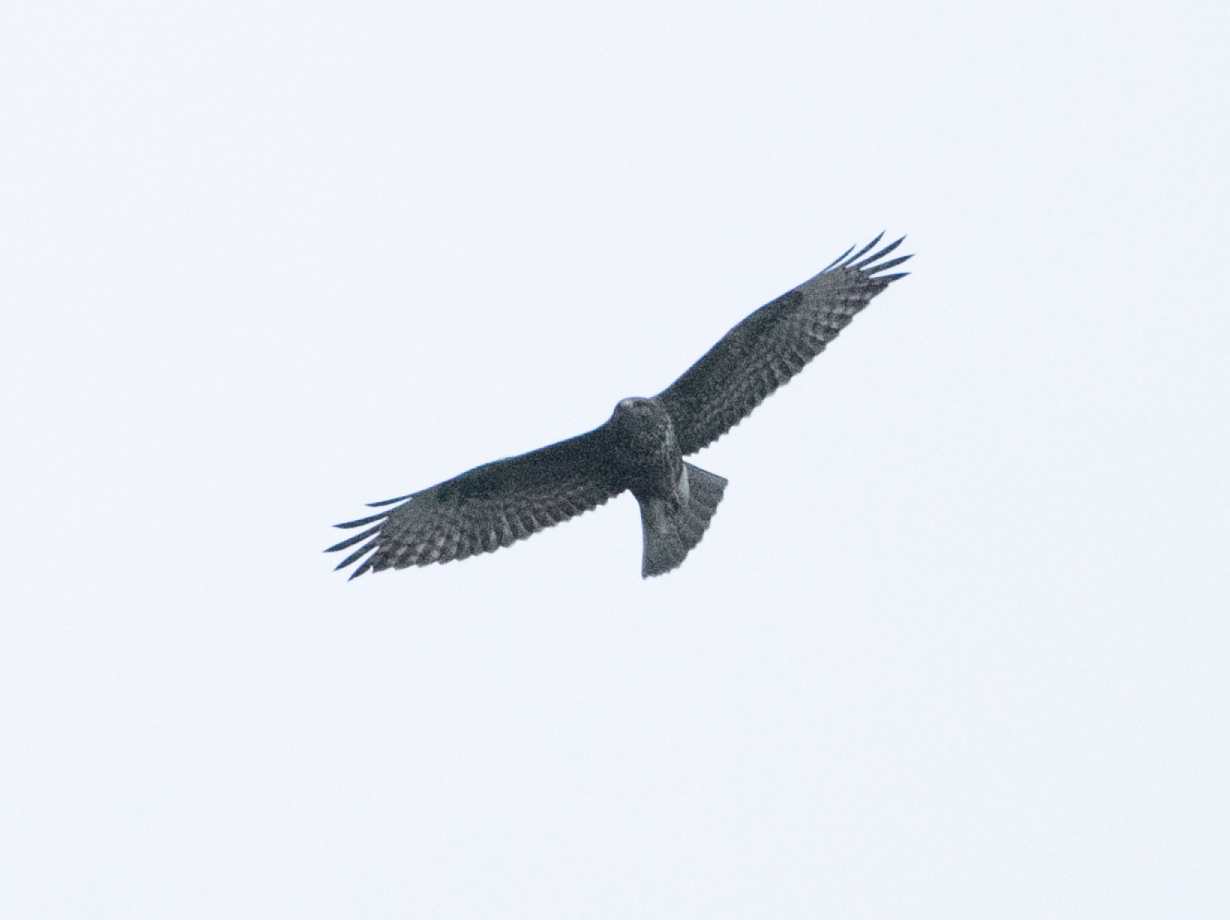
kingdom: Animalia
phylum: Chordata
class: Aves
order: Accipitriformes
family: Accipitridae
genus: Buteo
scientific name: Buteo buteo
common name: Common buzzard
